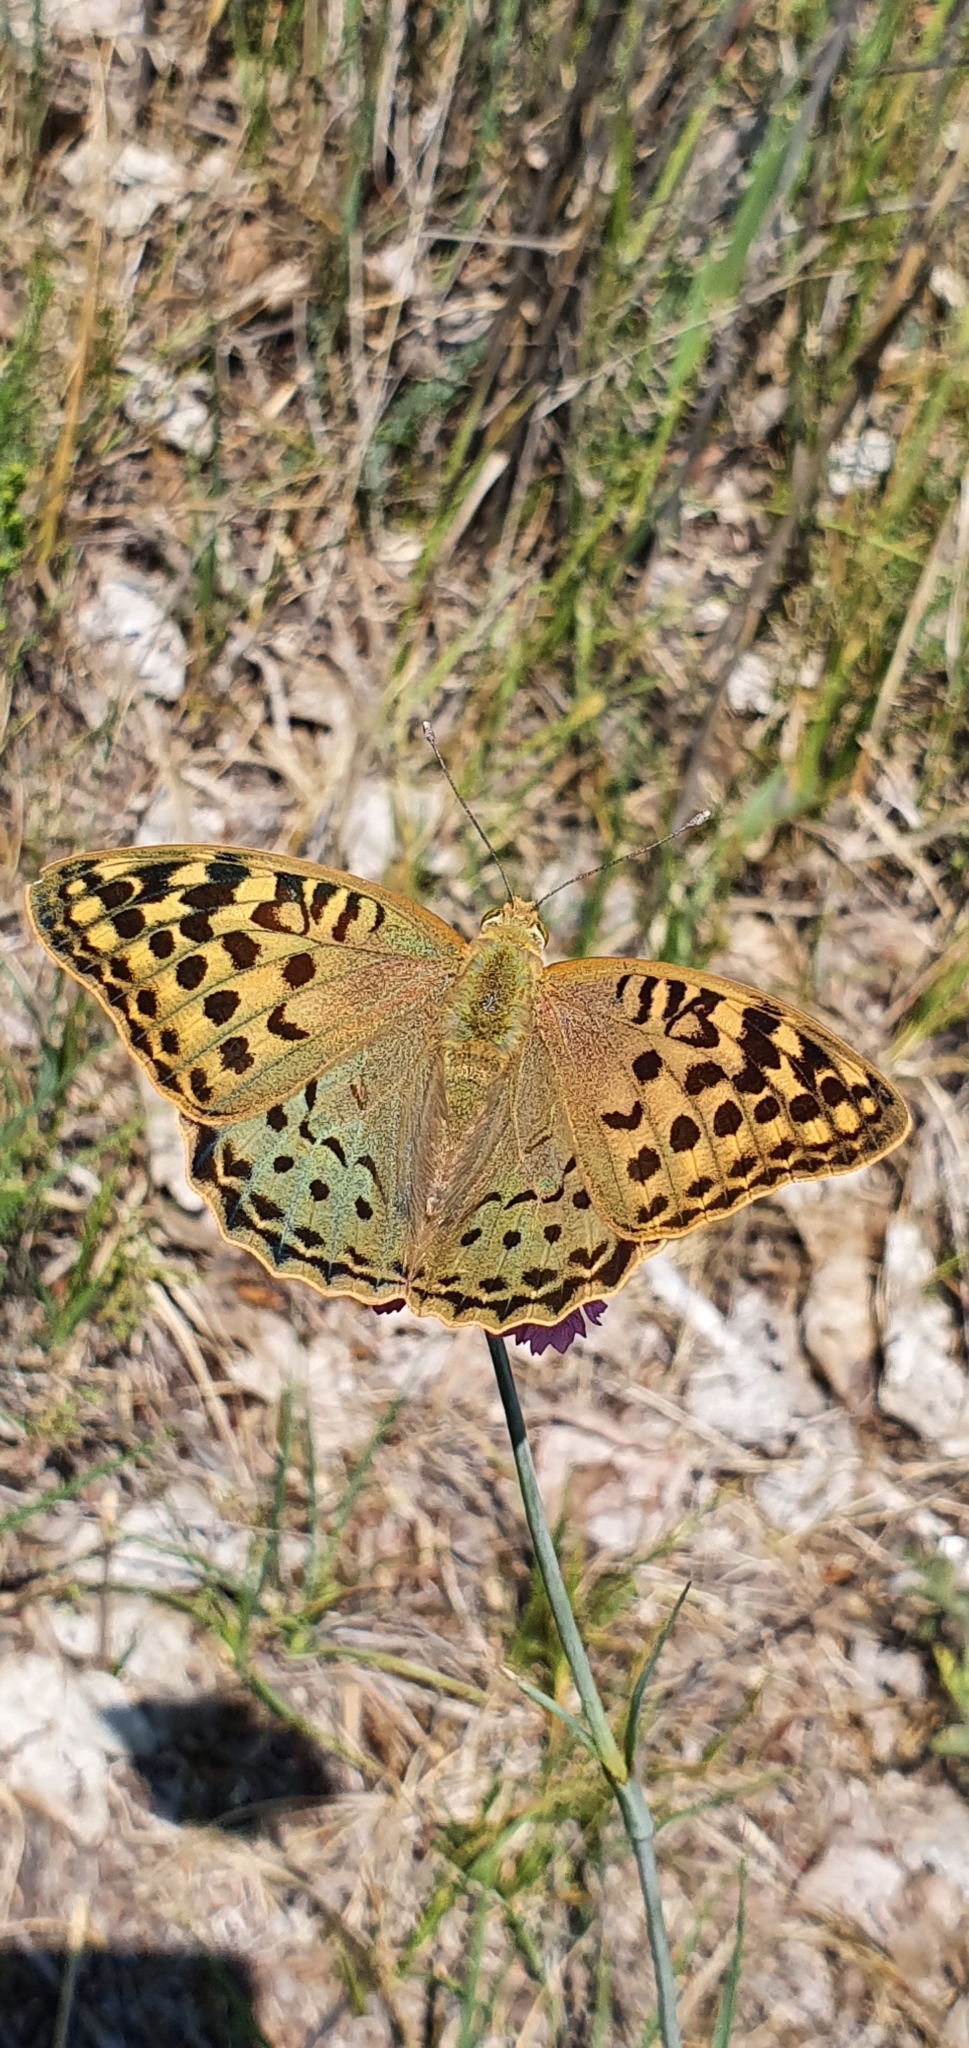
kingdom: Animalia
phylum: Arthropoda
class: Insecta
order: Lepidoptera
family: Nymphalidae
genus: Damora
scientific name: Damora pandora
